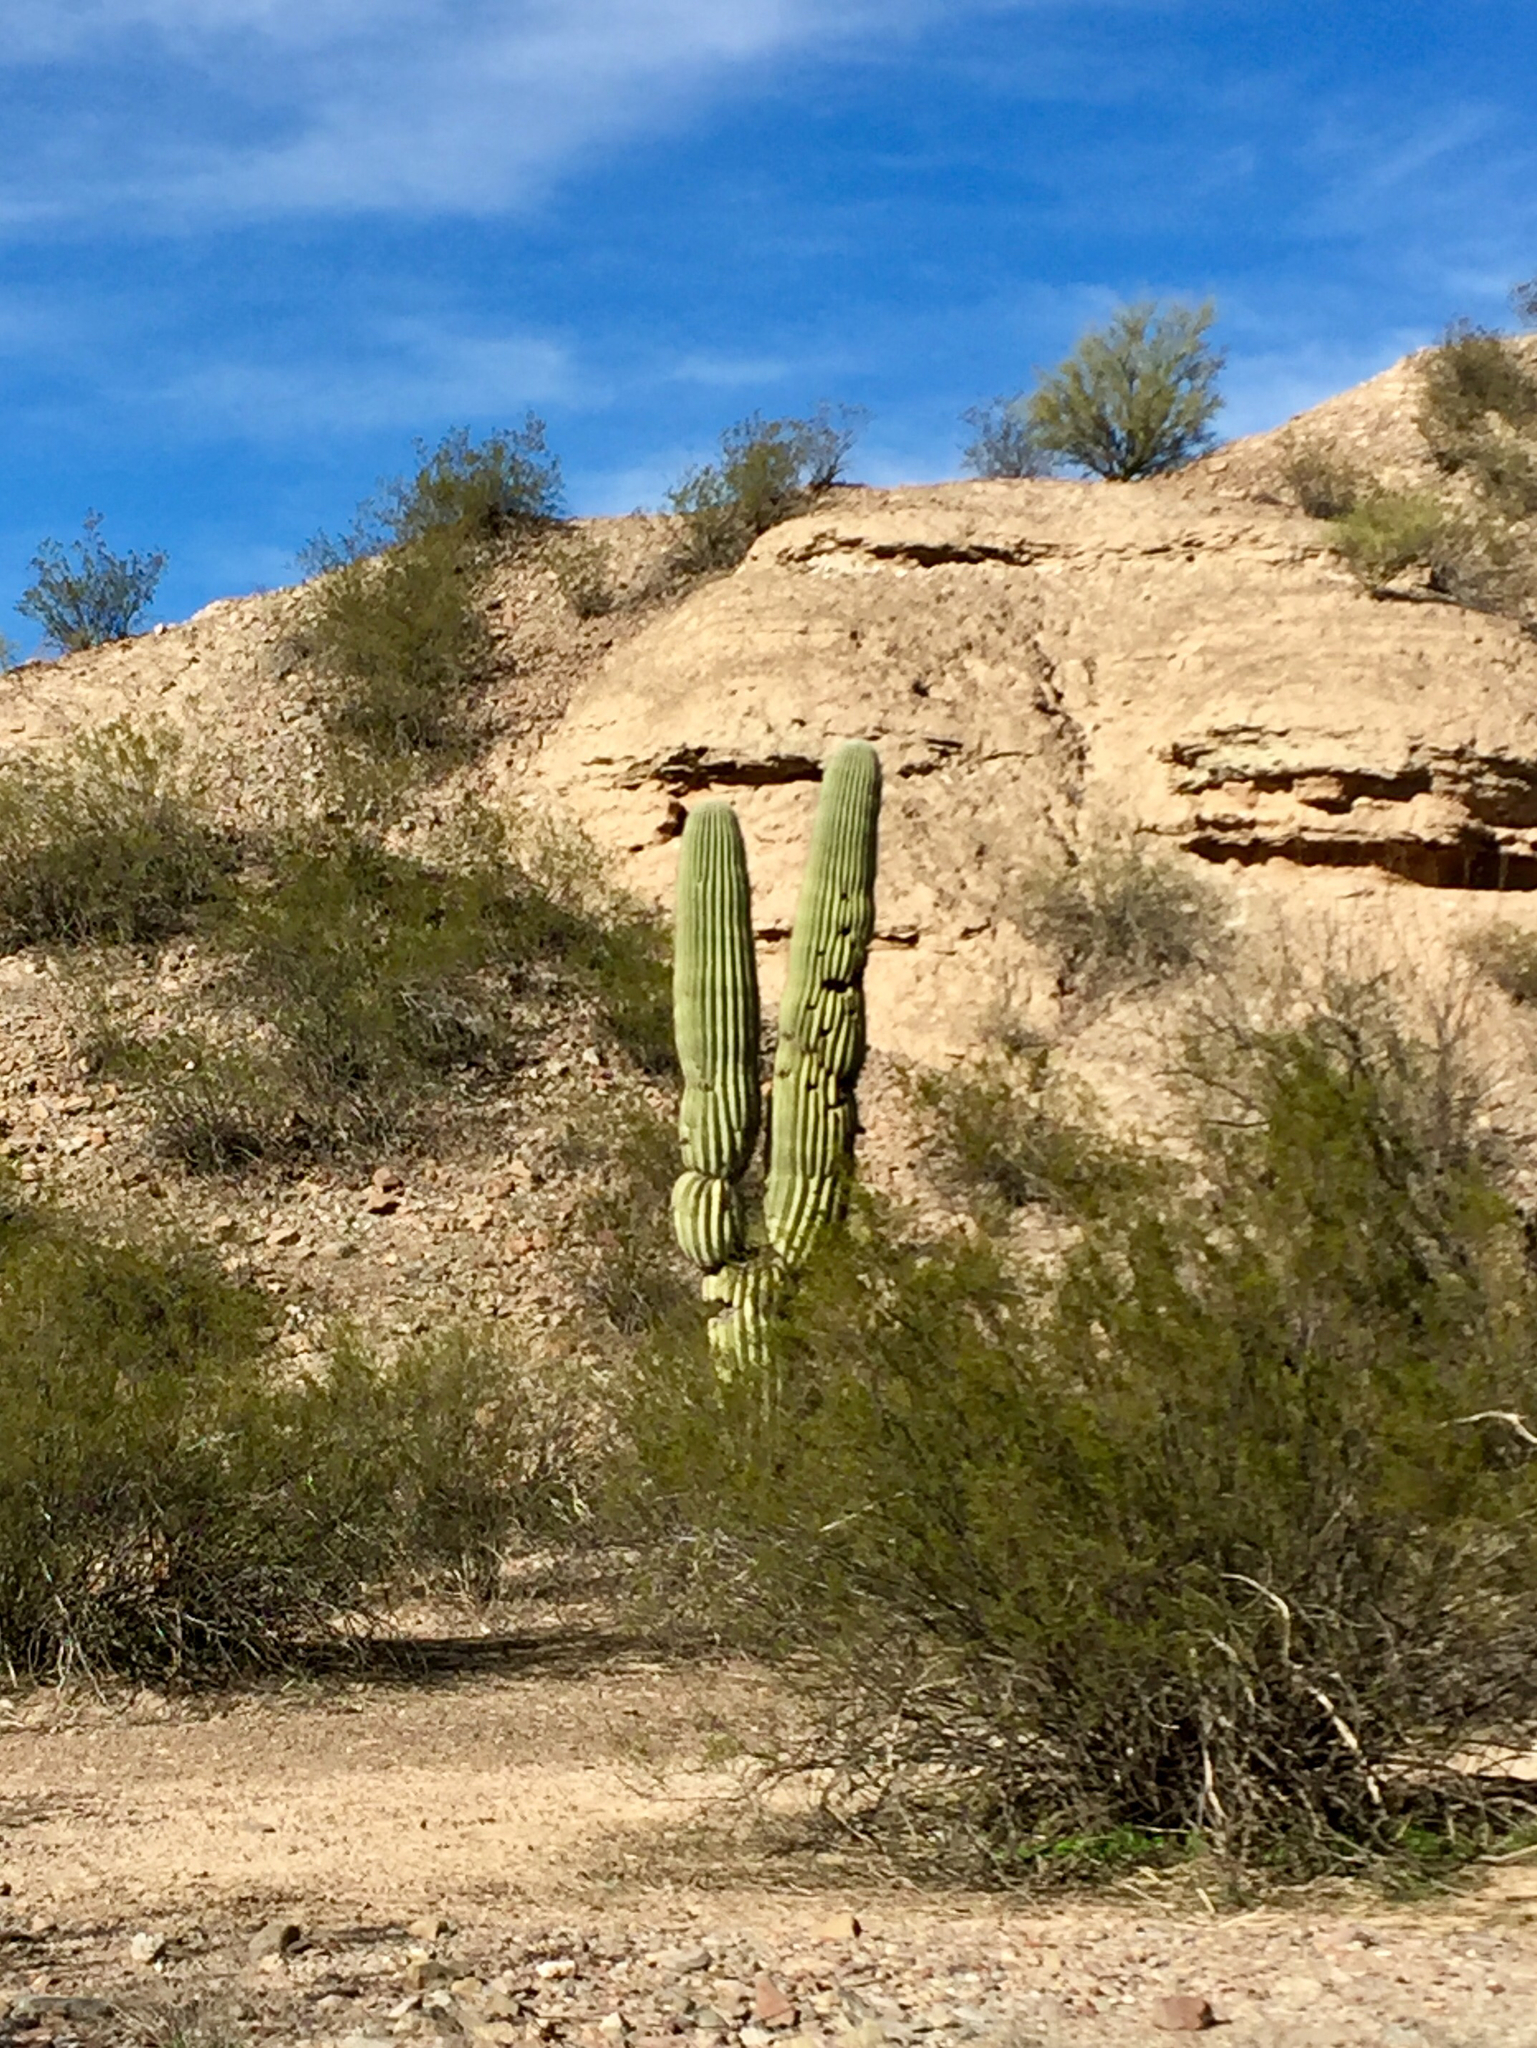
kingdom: Plantae
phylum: Tracheophyta
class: Magnoliopsida
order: Caryophyllales
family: Cactaceae
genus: Carnegiea
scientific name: Carnegiea gigantea
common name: Saguaro
